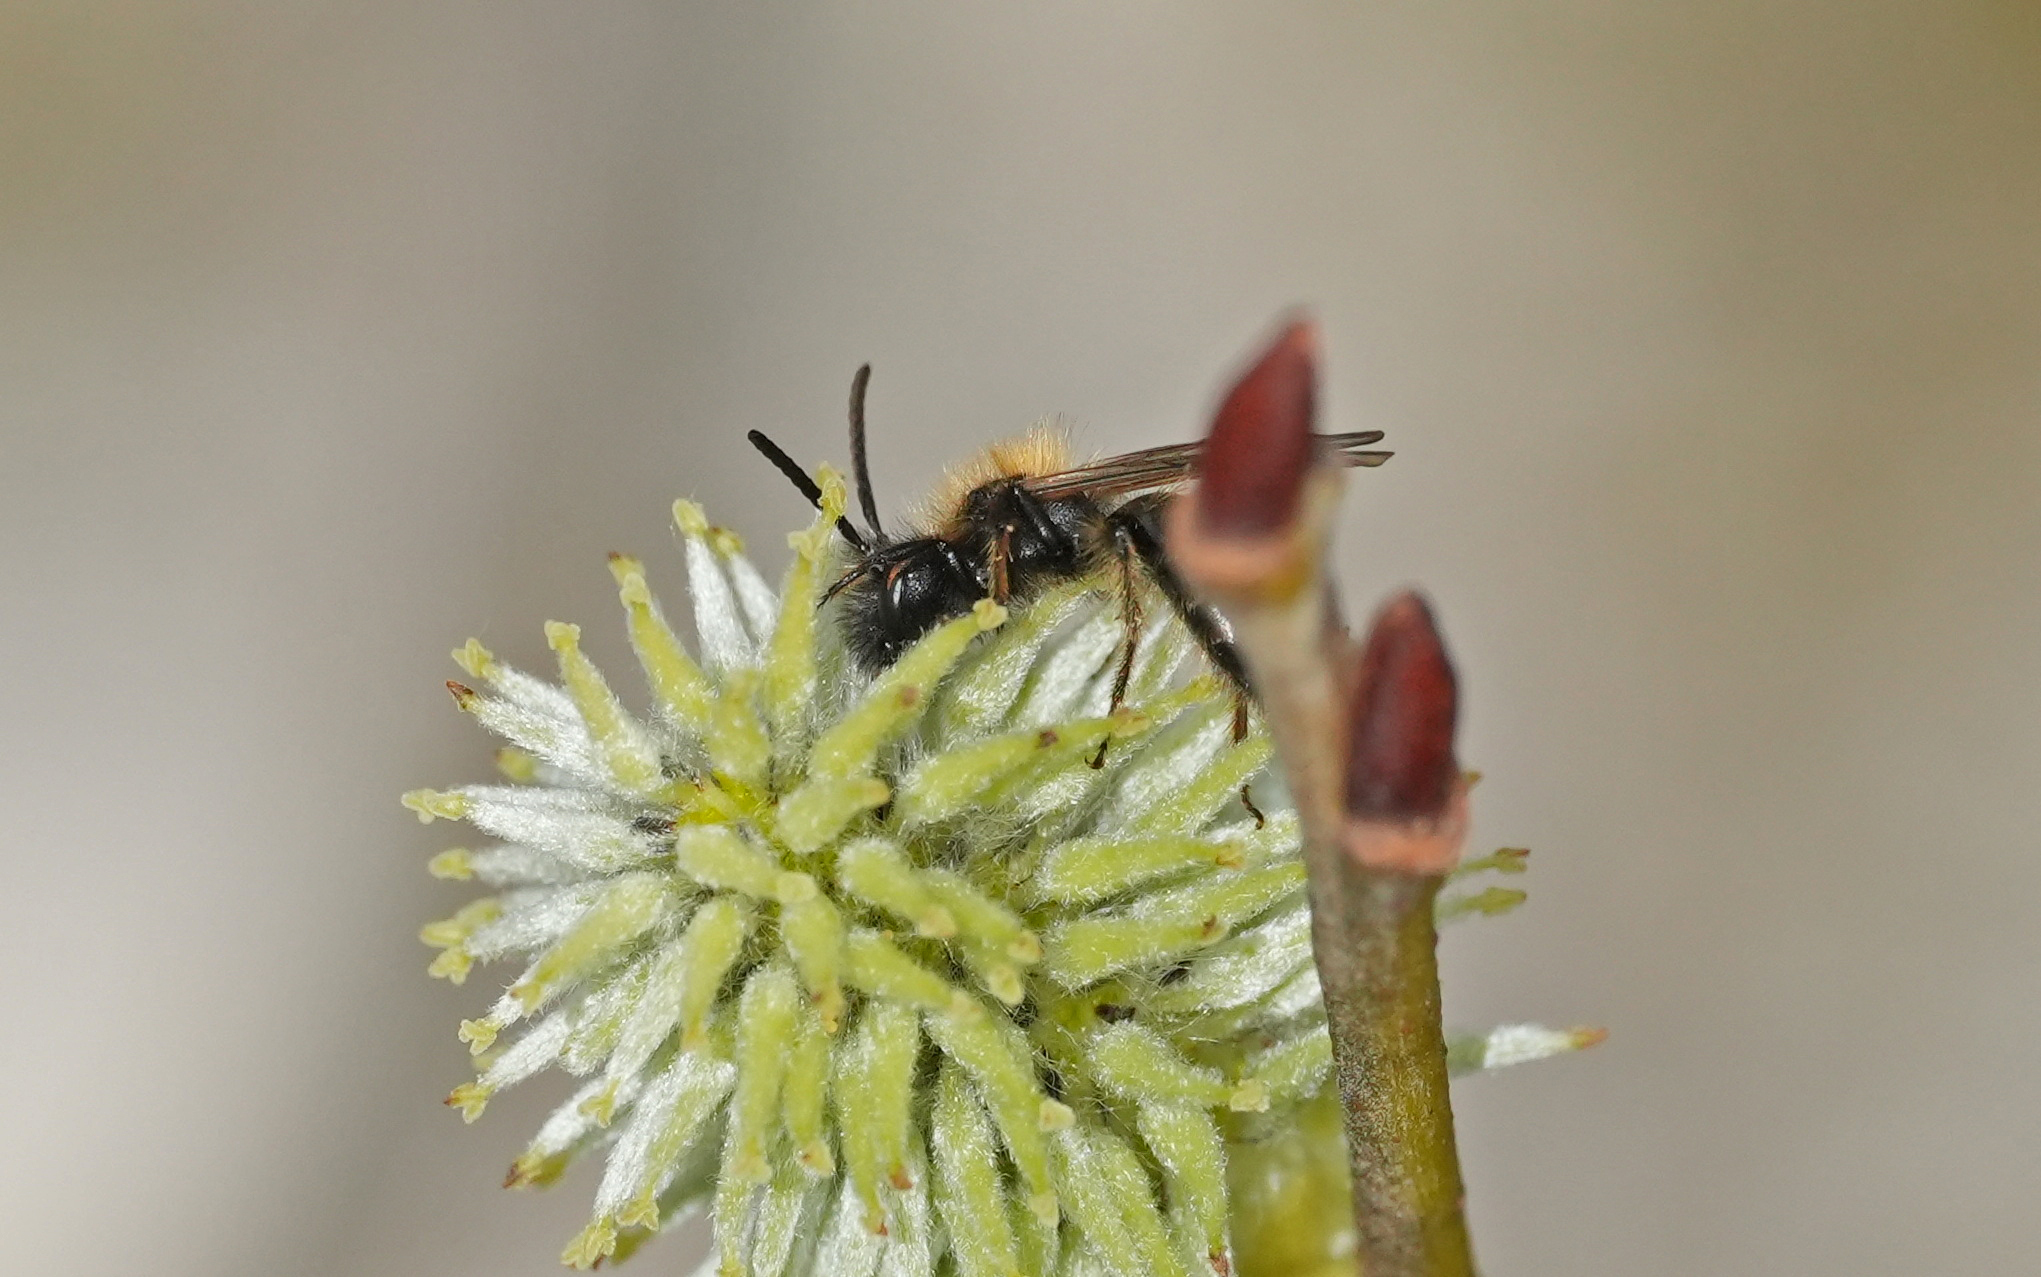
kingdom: Animalia
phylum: Arthropoda
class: Insecta
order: Hymenoptera
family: Andrenidae
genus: Andrena
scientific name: Andrena bicolor
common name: Gwynne's mining bee
